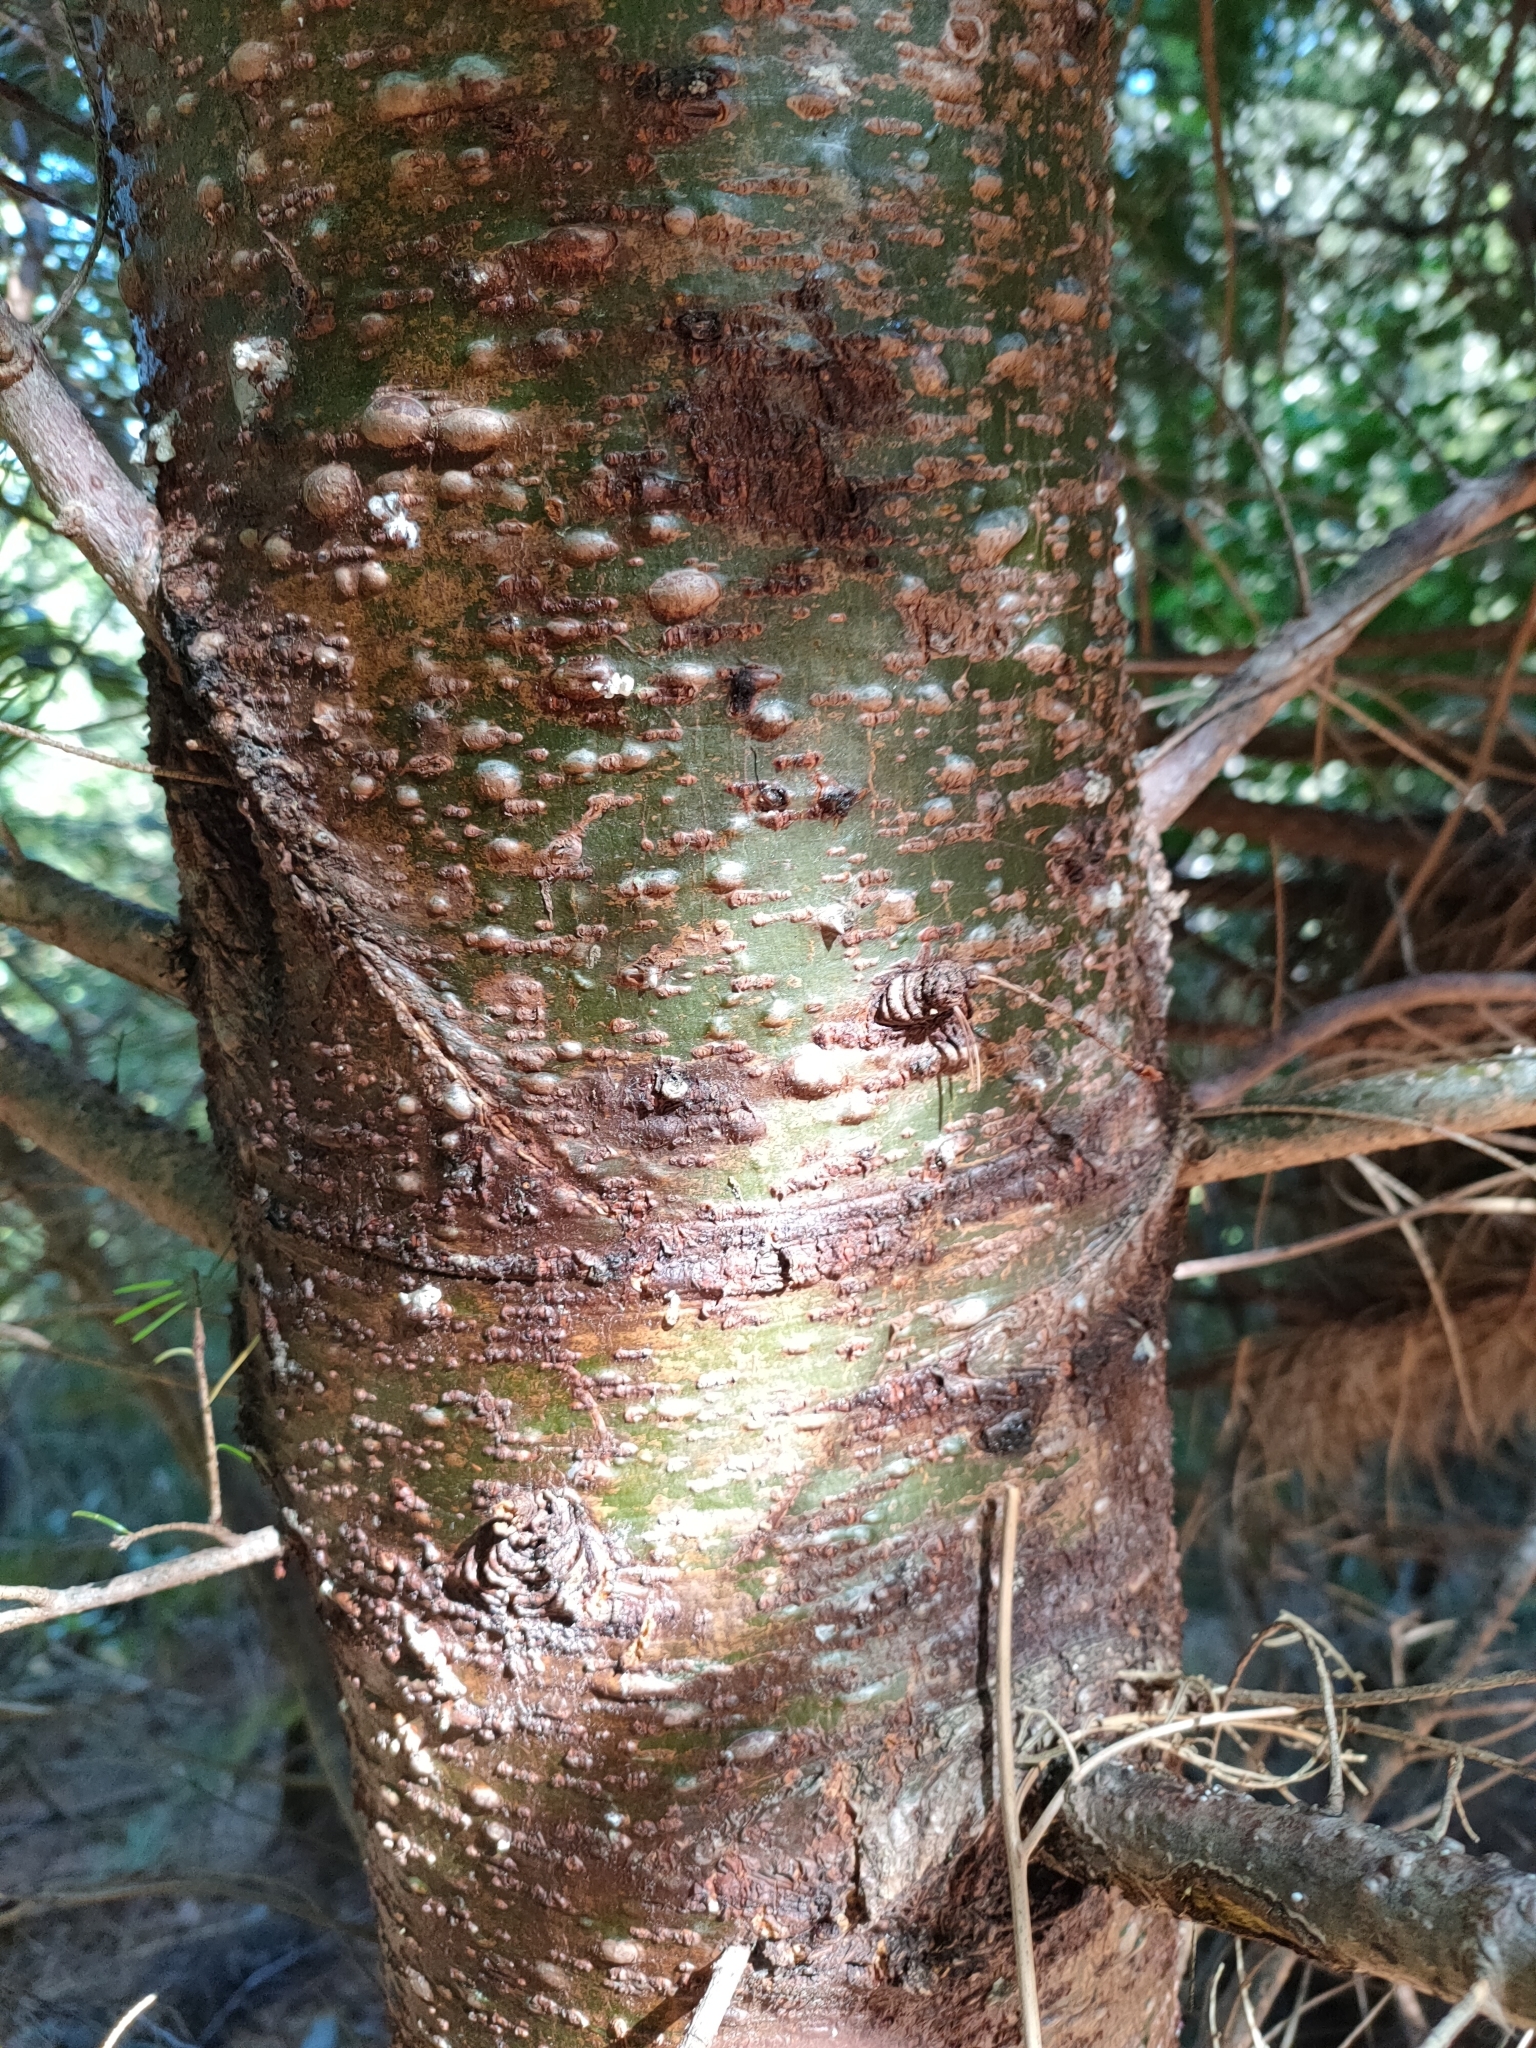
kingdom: Plantae
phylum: Tracheophyta
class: Pinopsida
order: Pinales
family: Pinaceae
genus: Pseudotsuga
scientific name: Pseudotsuga menziesii
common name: Douglas fir
